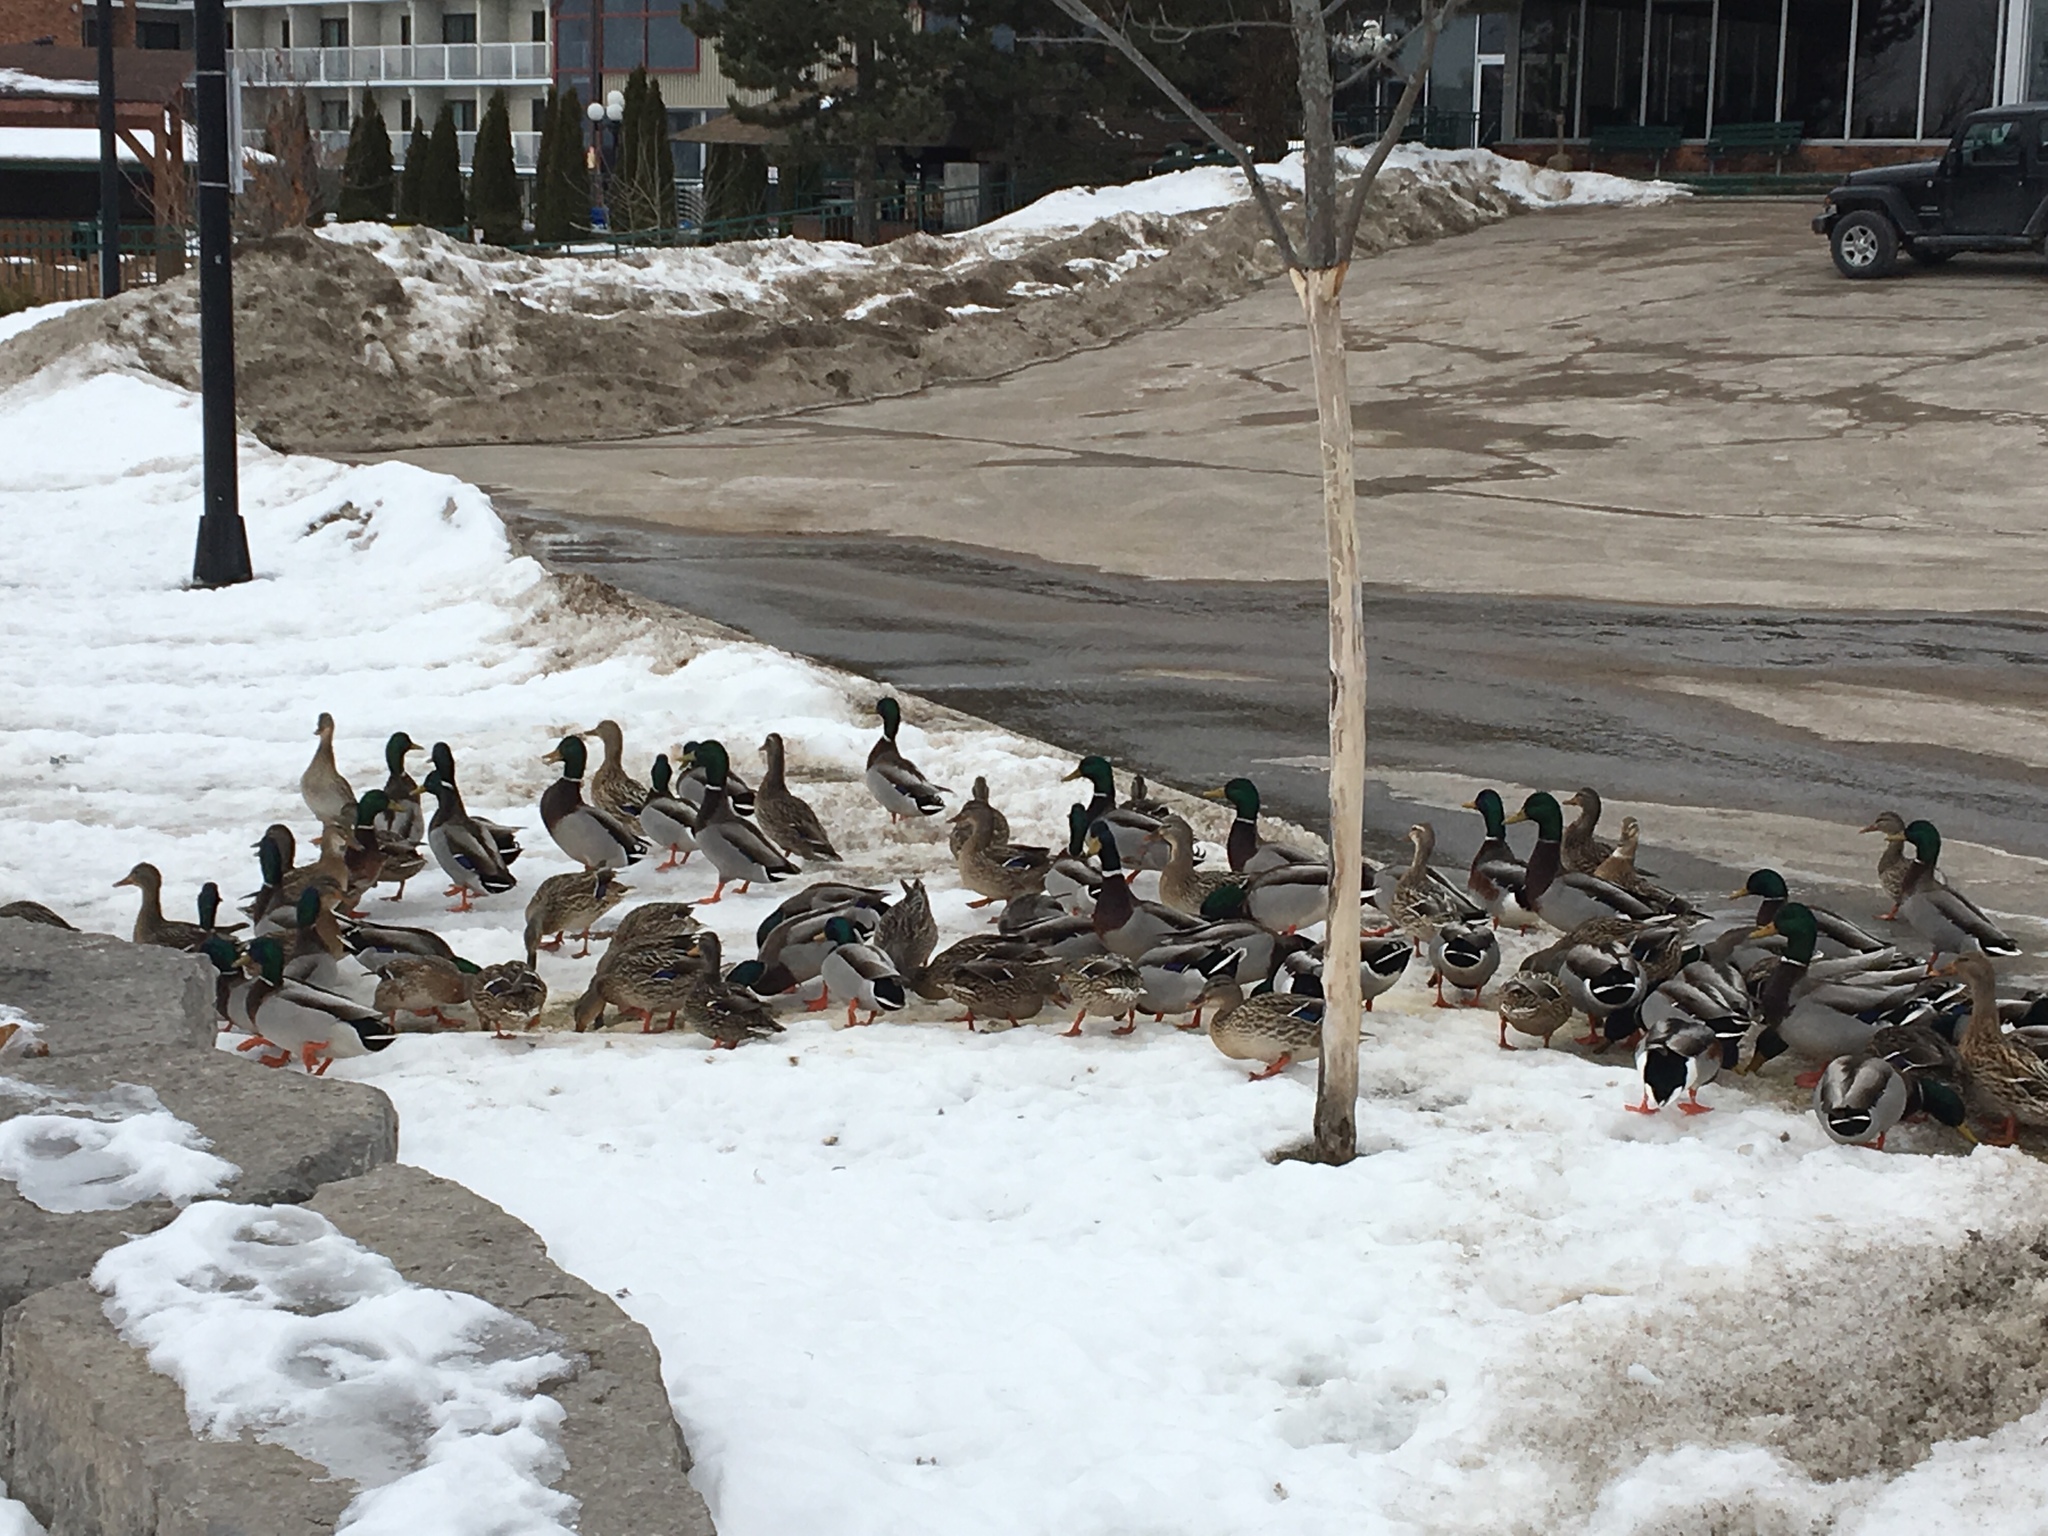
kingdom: Animalia
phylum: Chordata
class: Aves
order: Anseriformes
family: Anatidae
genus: Anas
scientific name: Anas platyrhynchos
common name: Mallard
